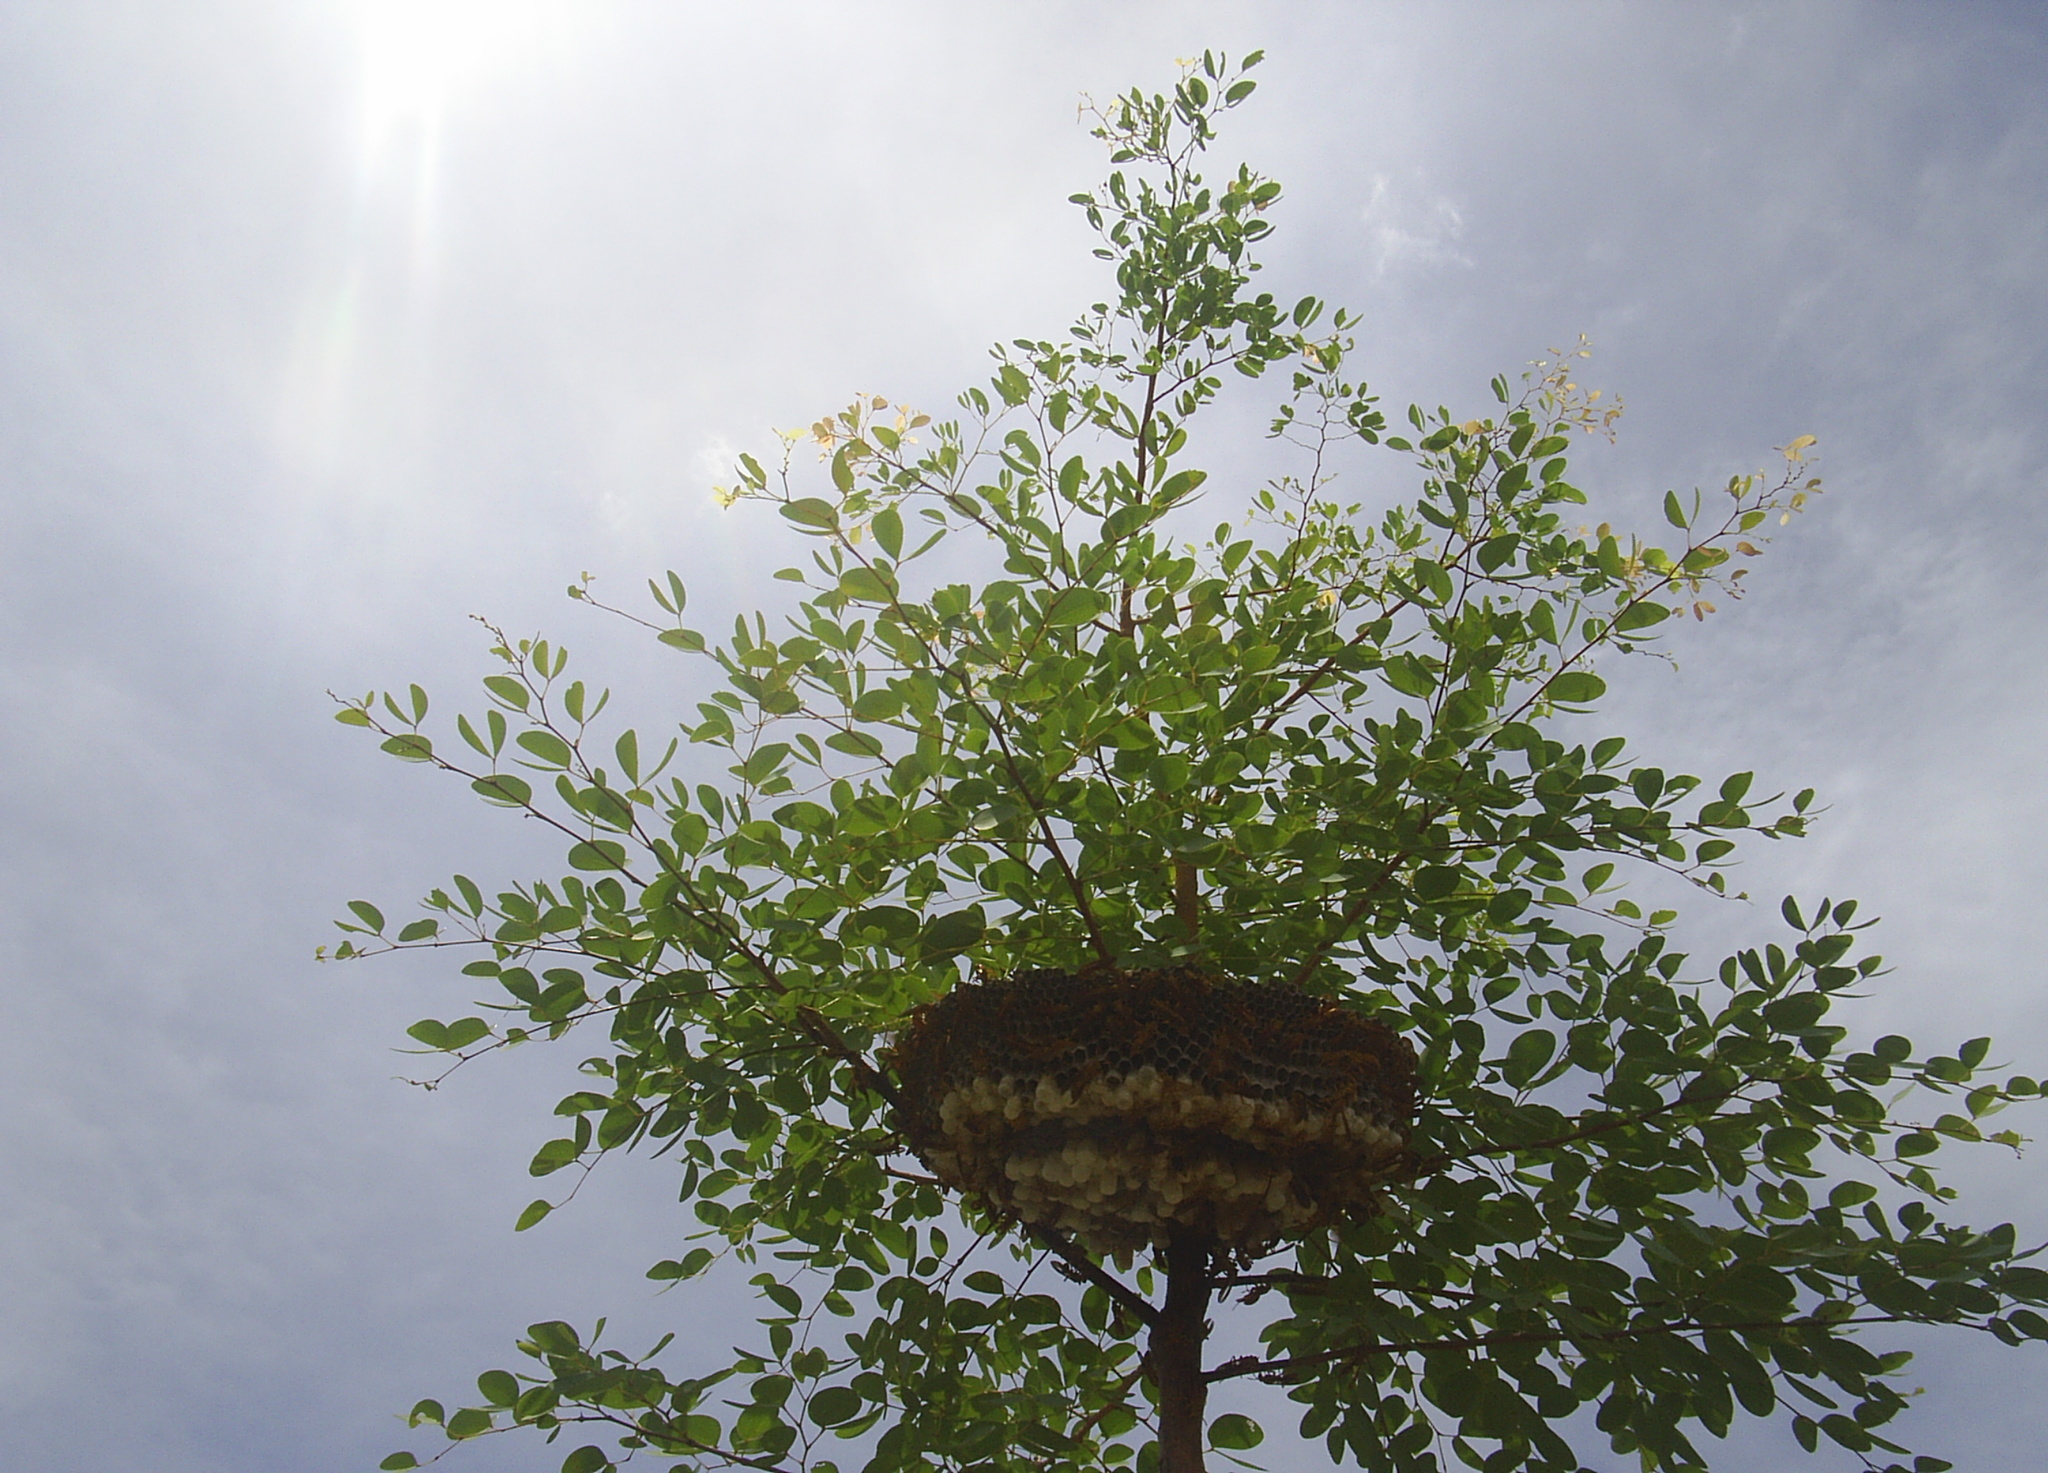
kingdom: Animalia
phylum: Arthropoda
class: Insecta
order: Hymenoptera
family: Eumenidae
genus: Polistes
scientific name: Polistes olivaceus
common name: Paper wasp
